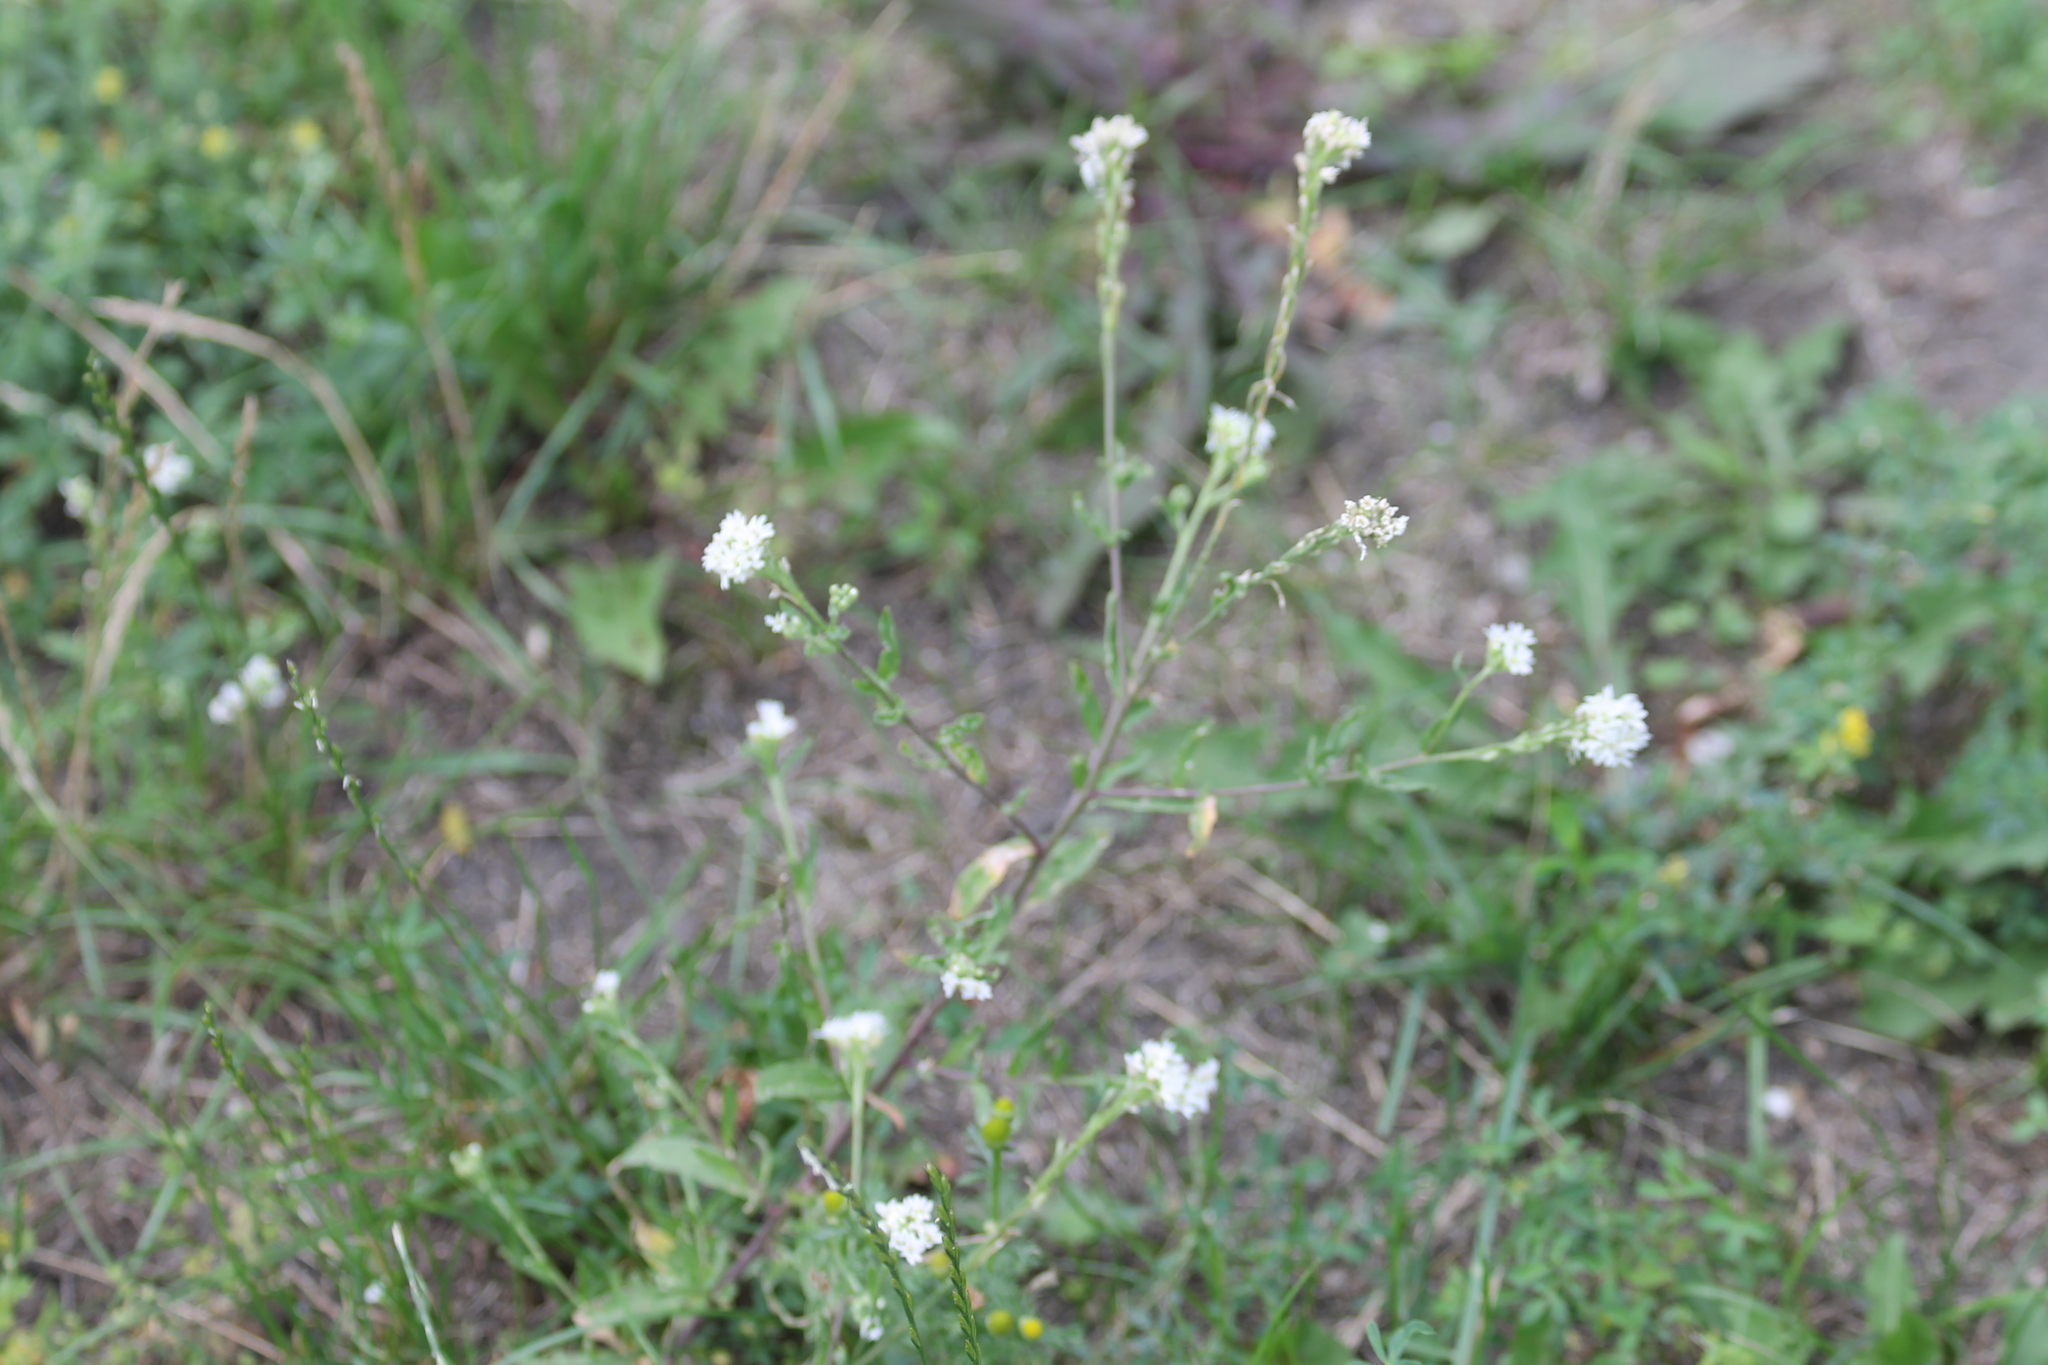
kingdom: Plantae
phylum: Tracheophyta
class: Magnoliopsida
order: Brassicales
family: Brassicaceae
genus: Berteroa
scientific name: Berteroa incana
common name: Hoary alison
